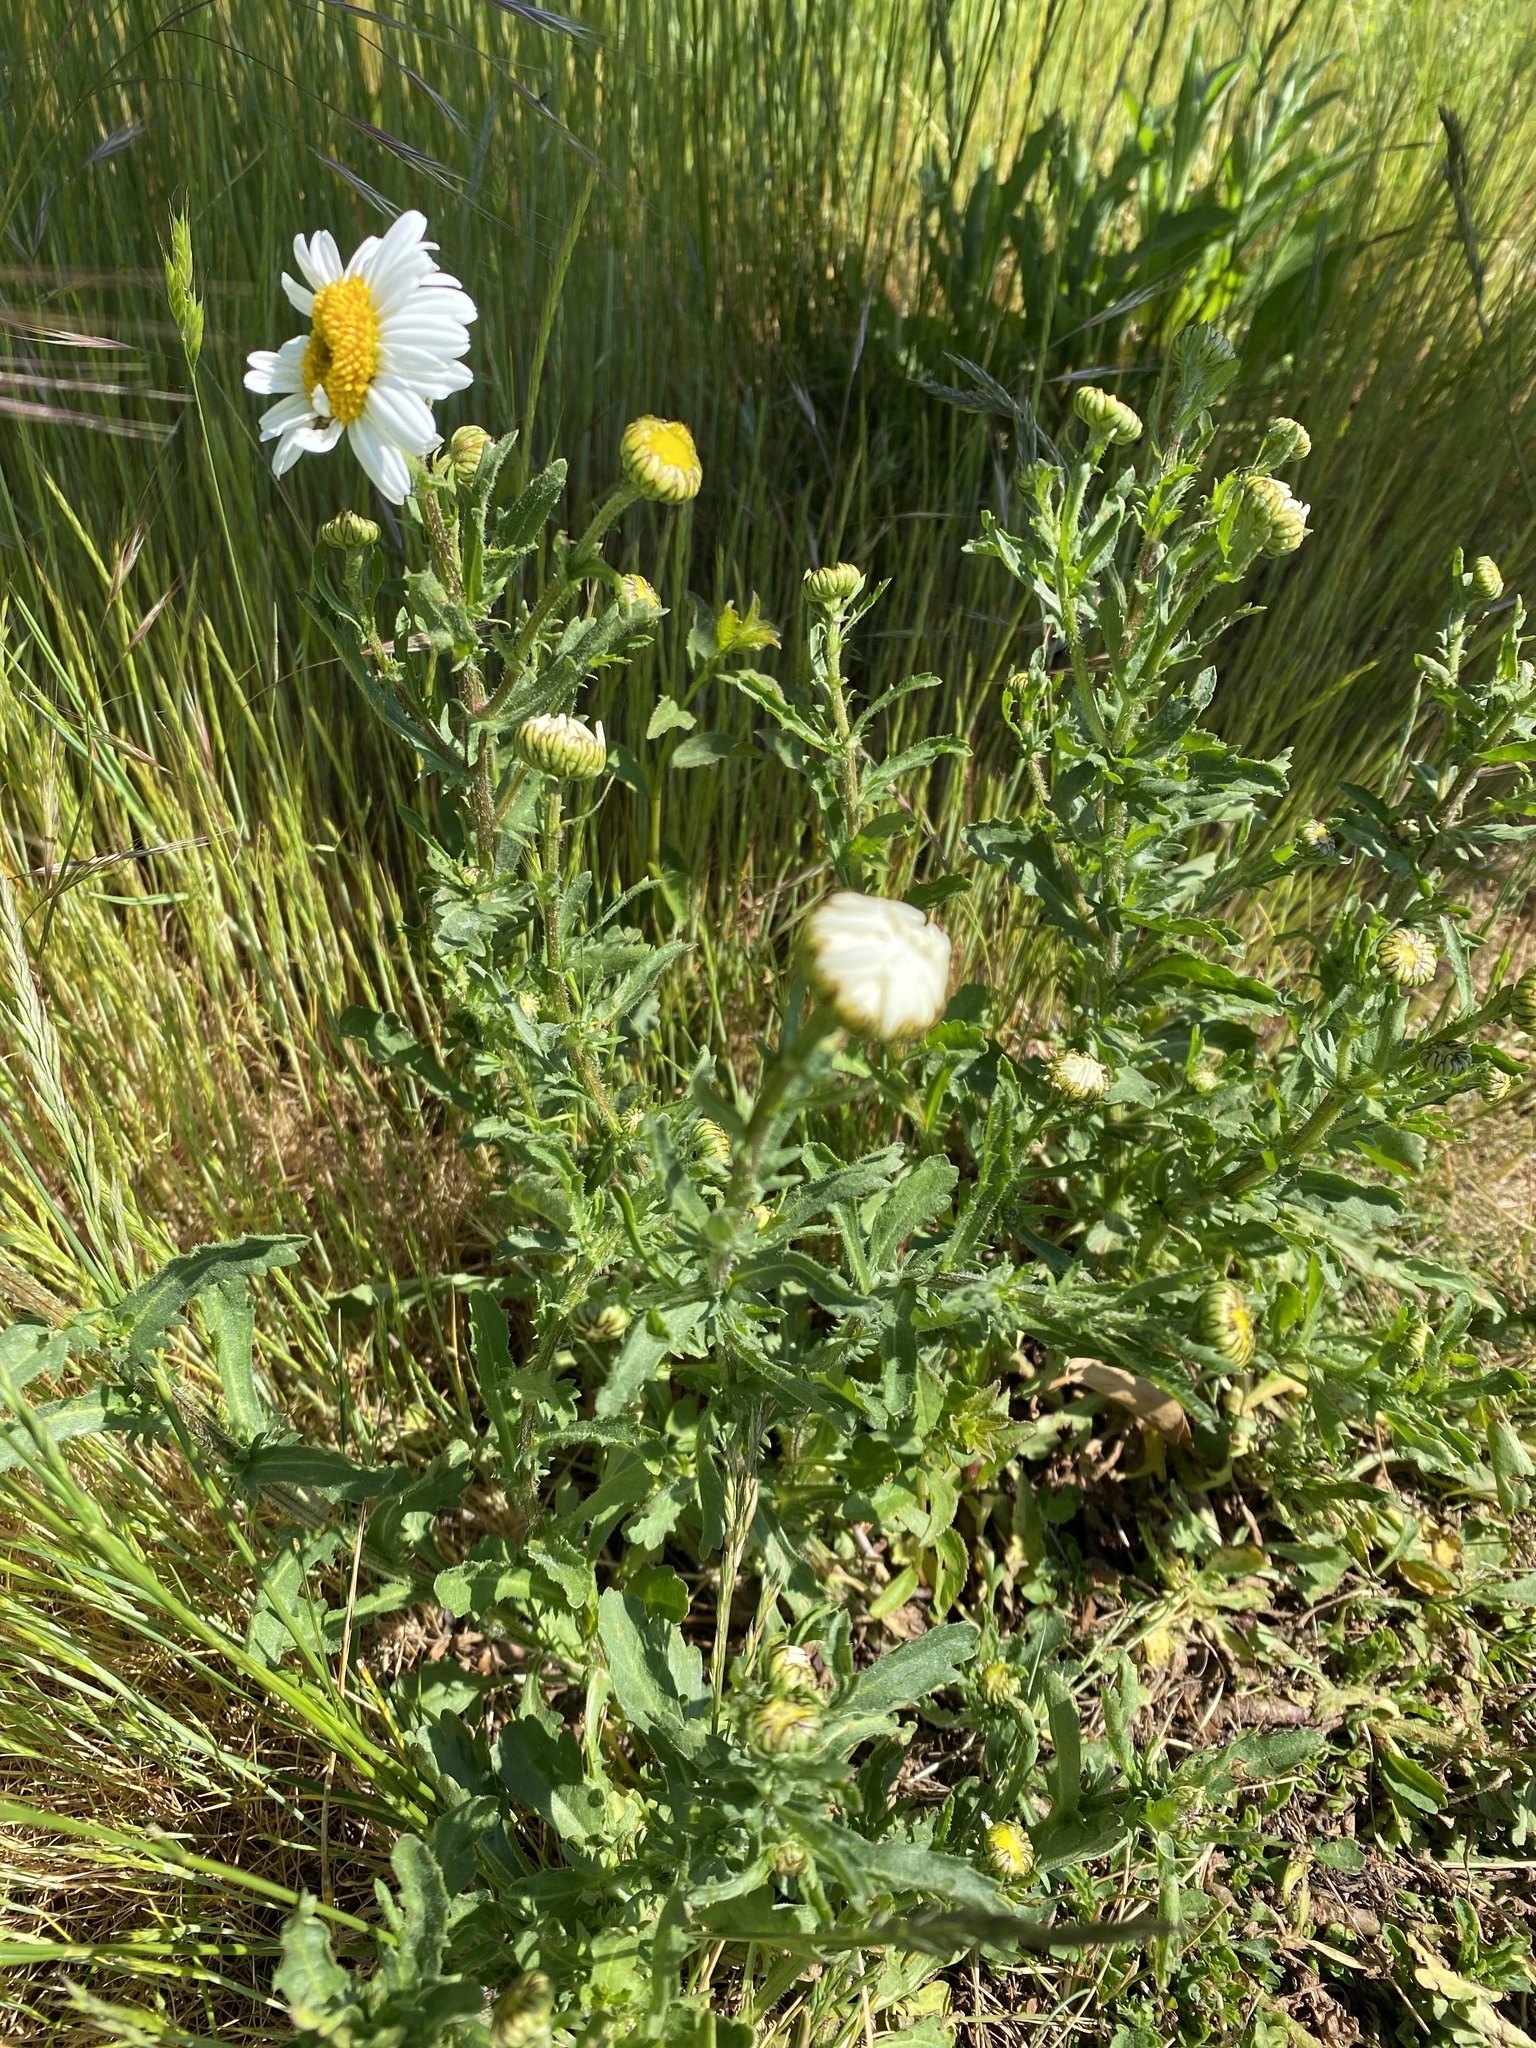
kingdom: Plantae
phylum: Tracheophyta
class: Magnoliopsida
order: Asterales
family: Asteraceae
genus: Leucanthemum
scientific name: Leucanthemum vulgare
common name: Oxeye daisy
